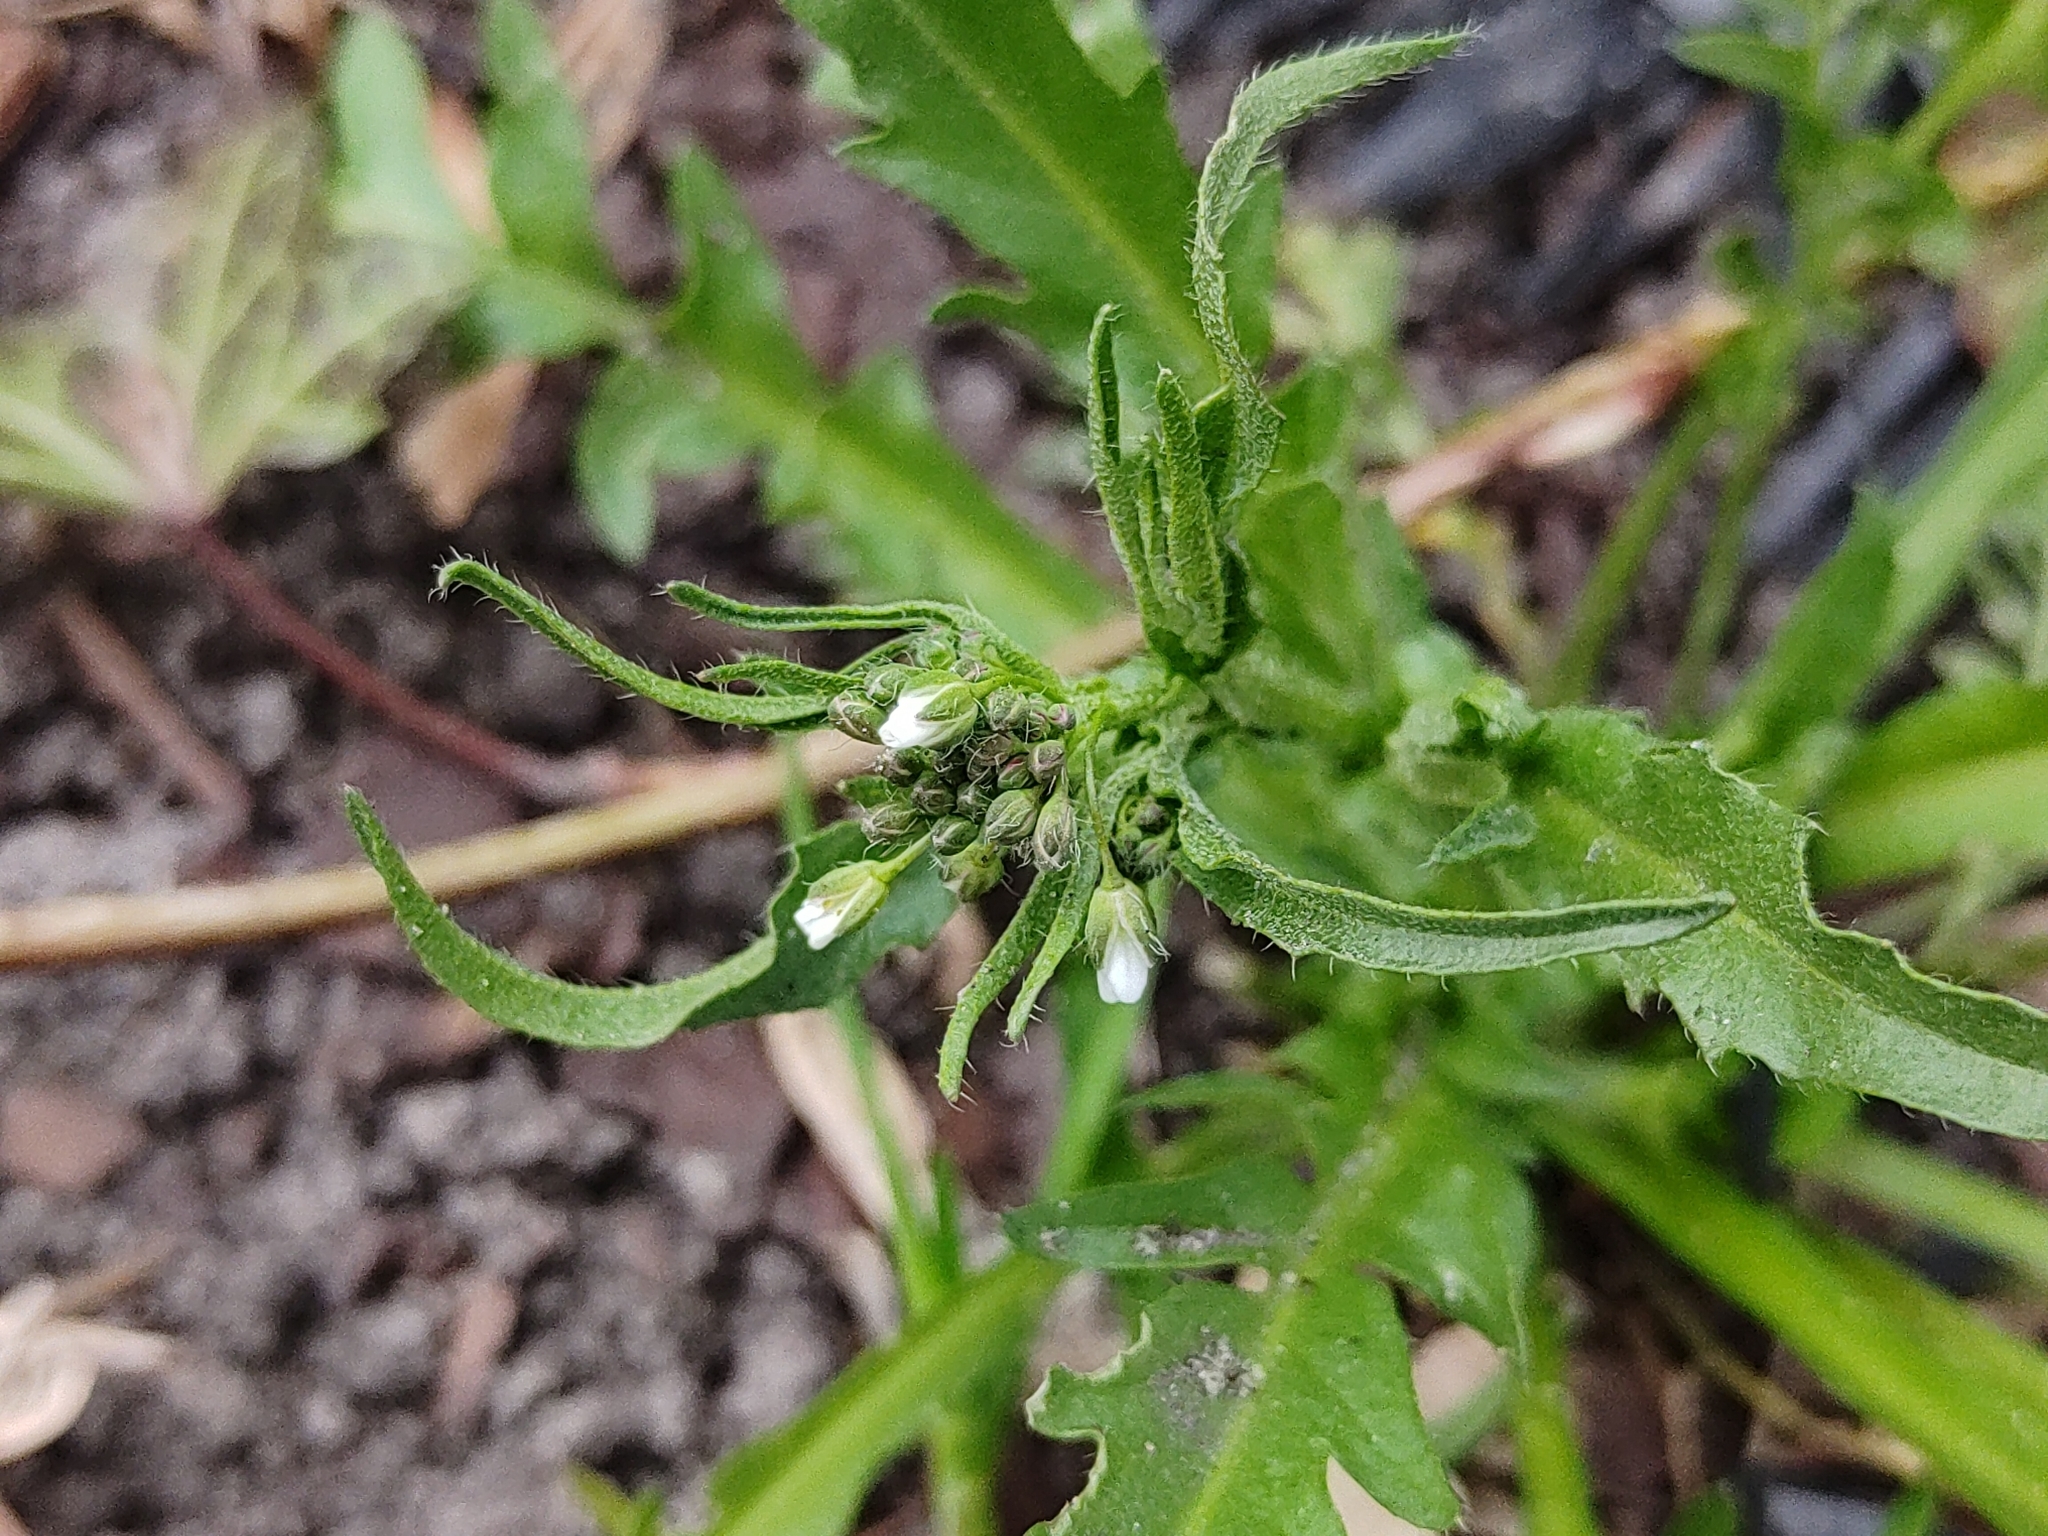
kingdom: Plantae
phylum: Tracheophyta
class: Magnoliopsida
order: Brassicales
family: Brassicaceae
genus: Capsella
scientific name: Capsella bursa-pastoris
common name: Shepherd's purse
